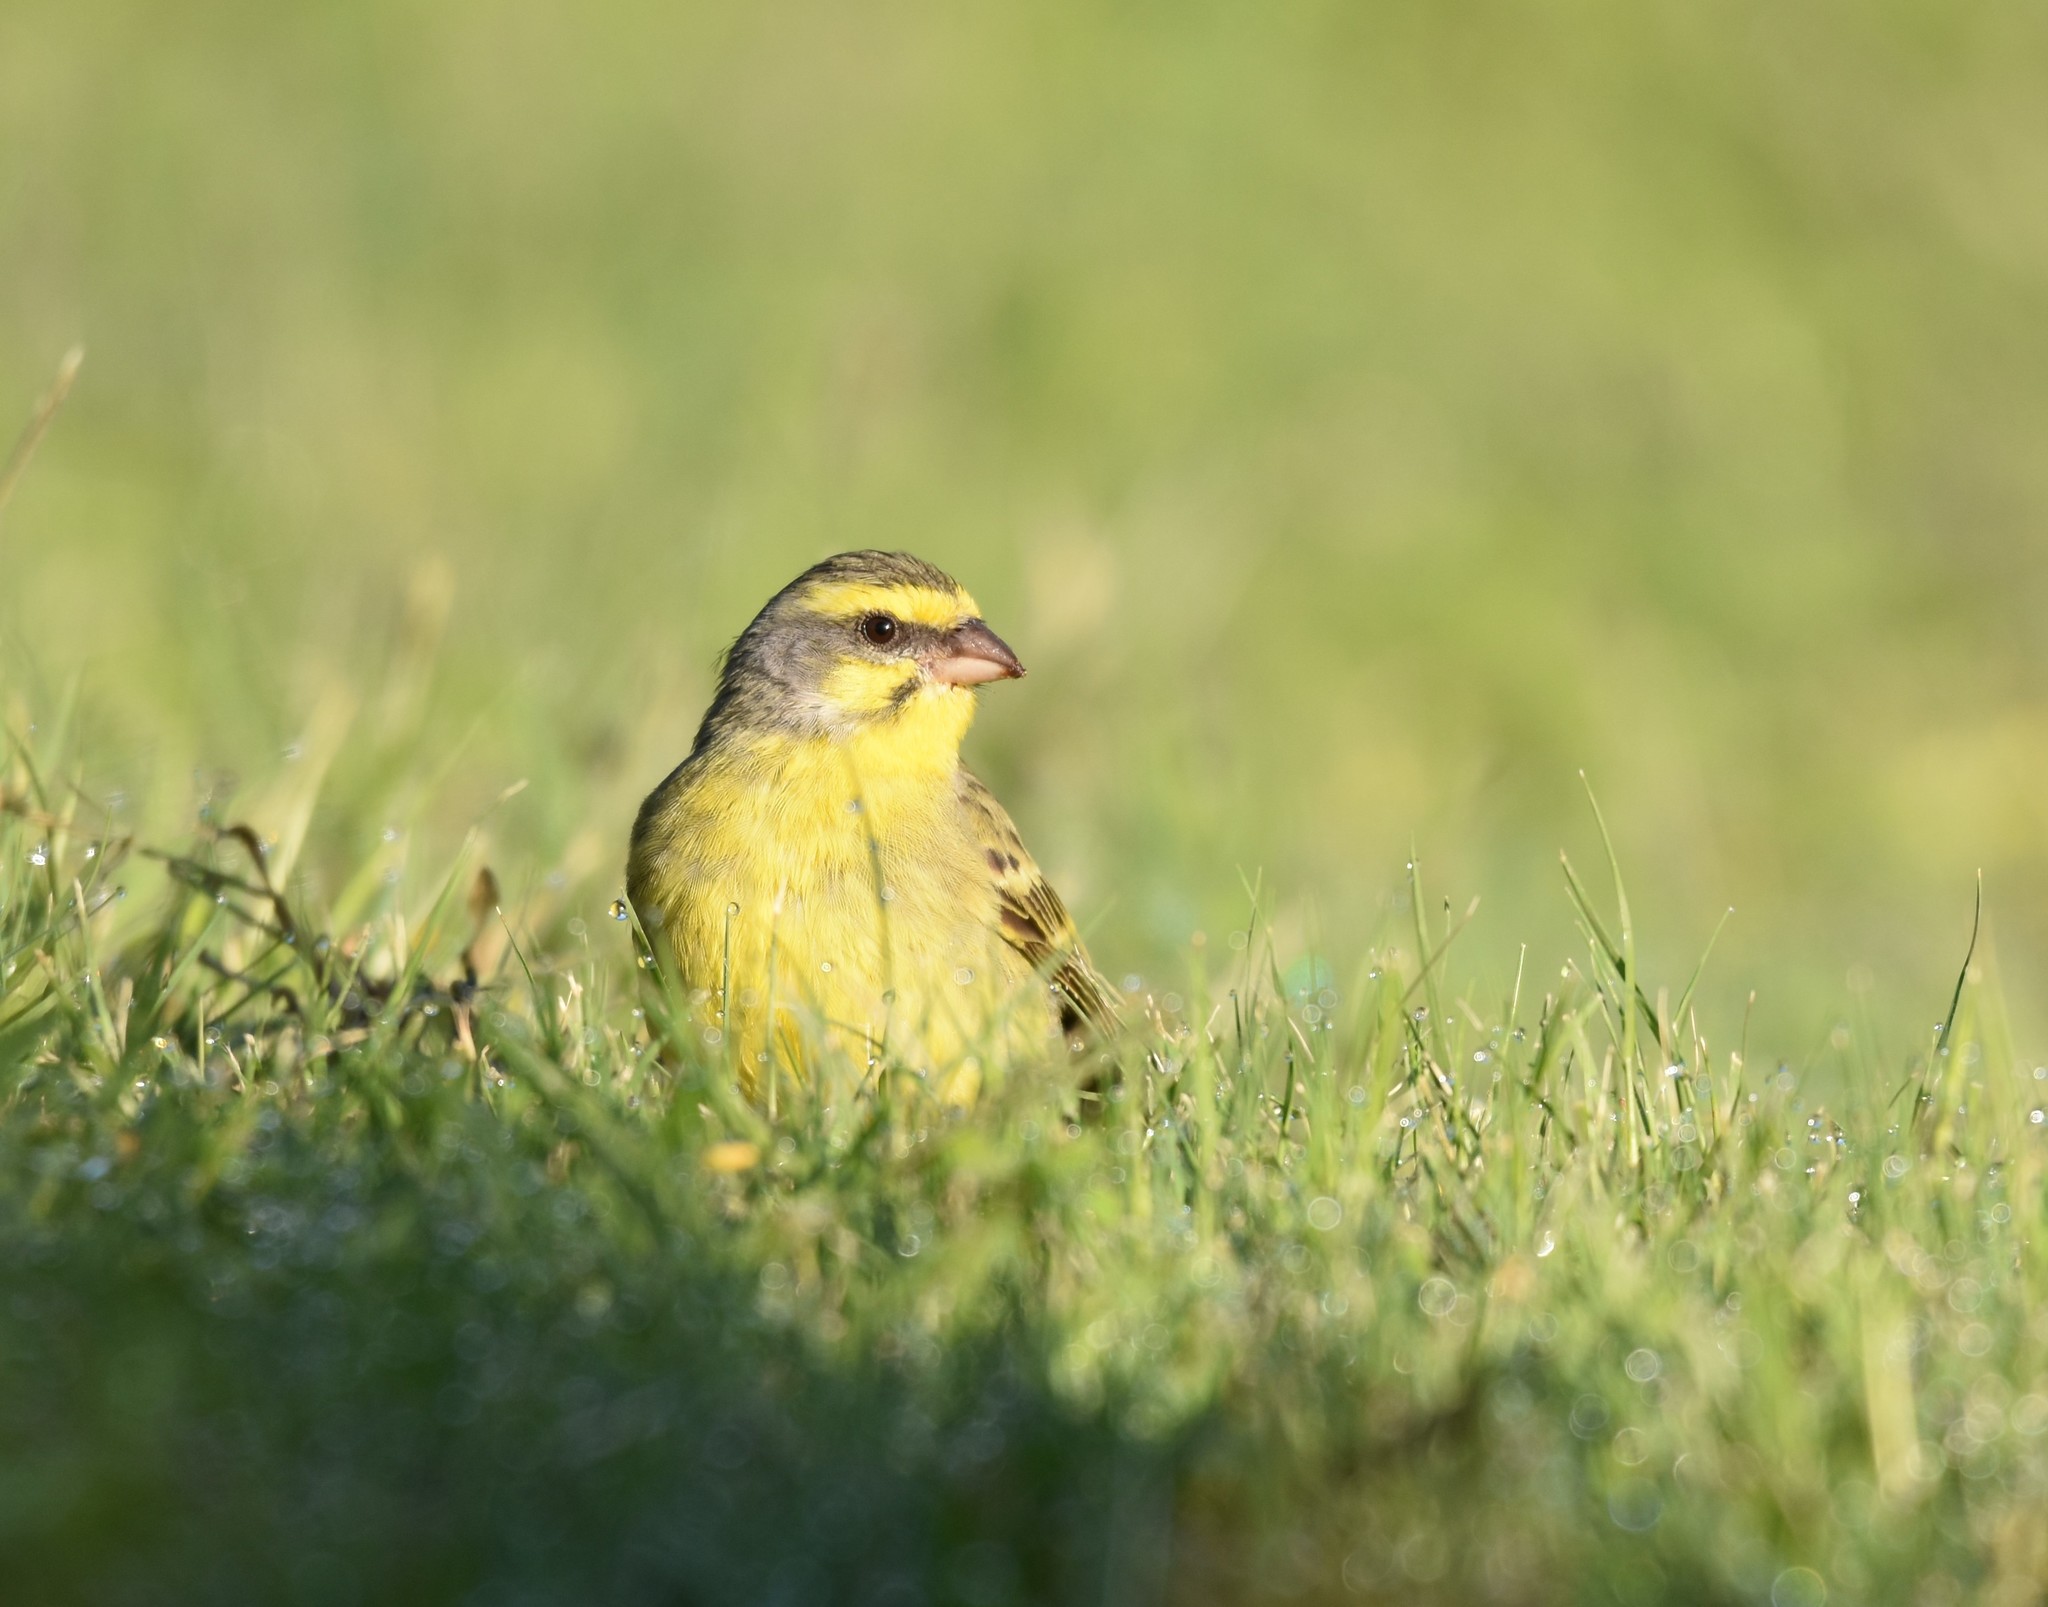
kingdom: Animalia
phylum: Chordata
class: Aves
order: Passeriformes
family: Fringillidae
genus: Crithagra
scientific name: Crithagra mozambica
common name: Yellow-fronted canary
